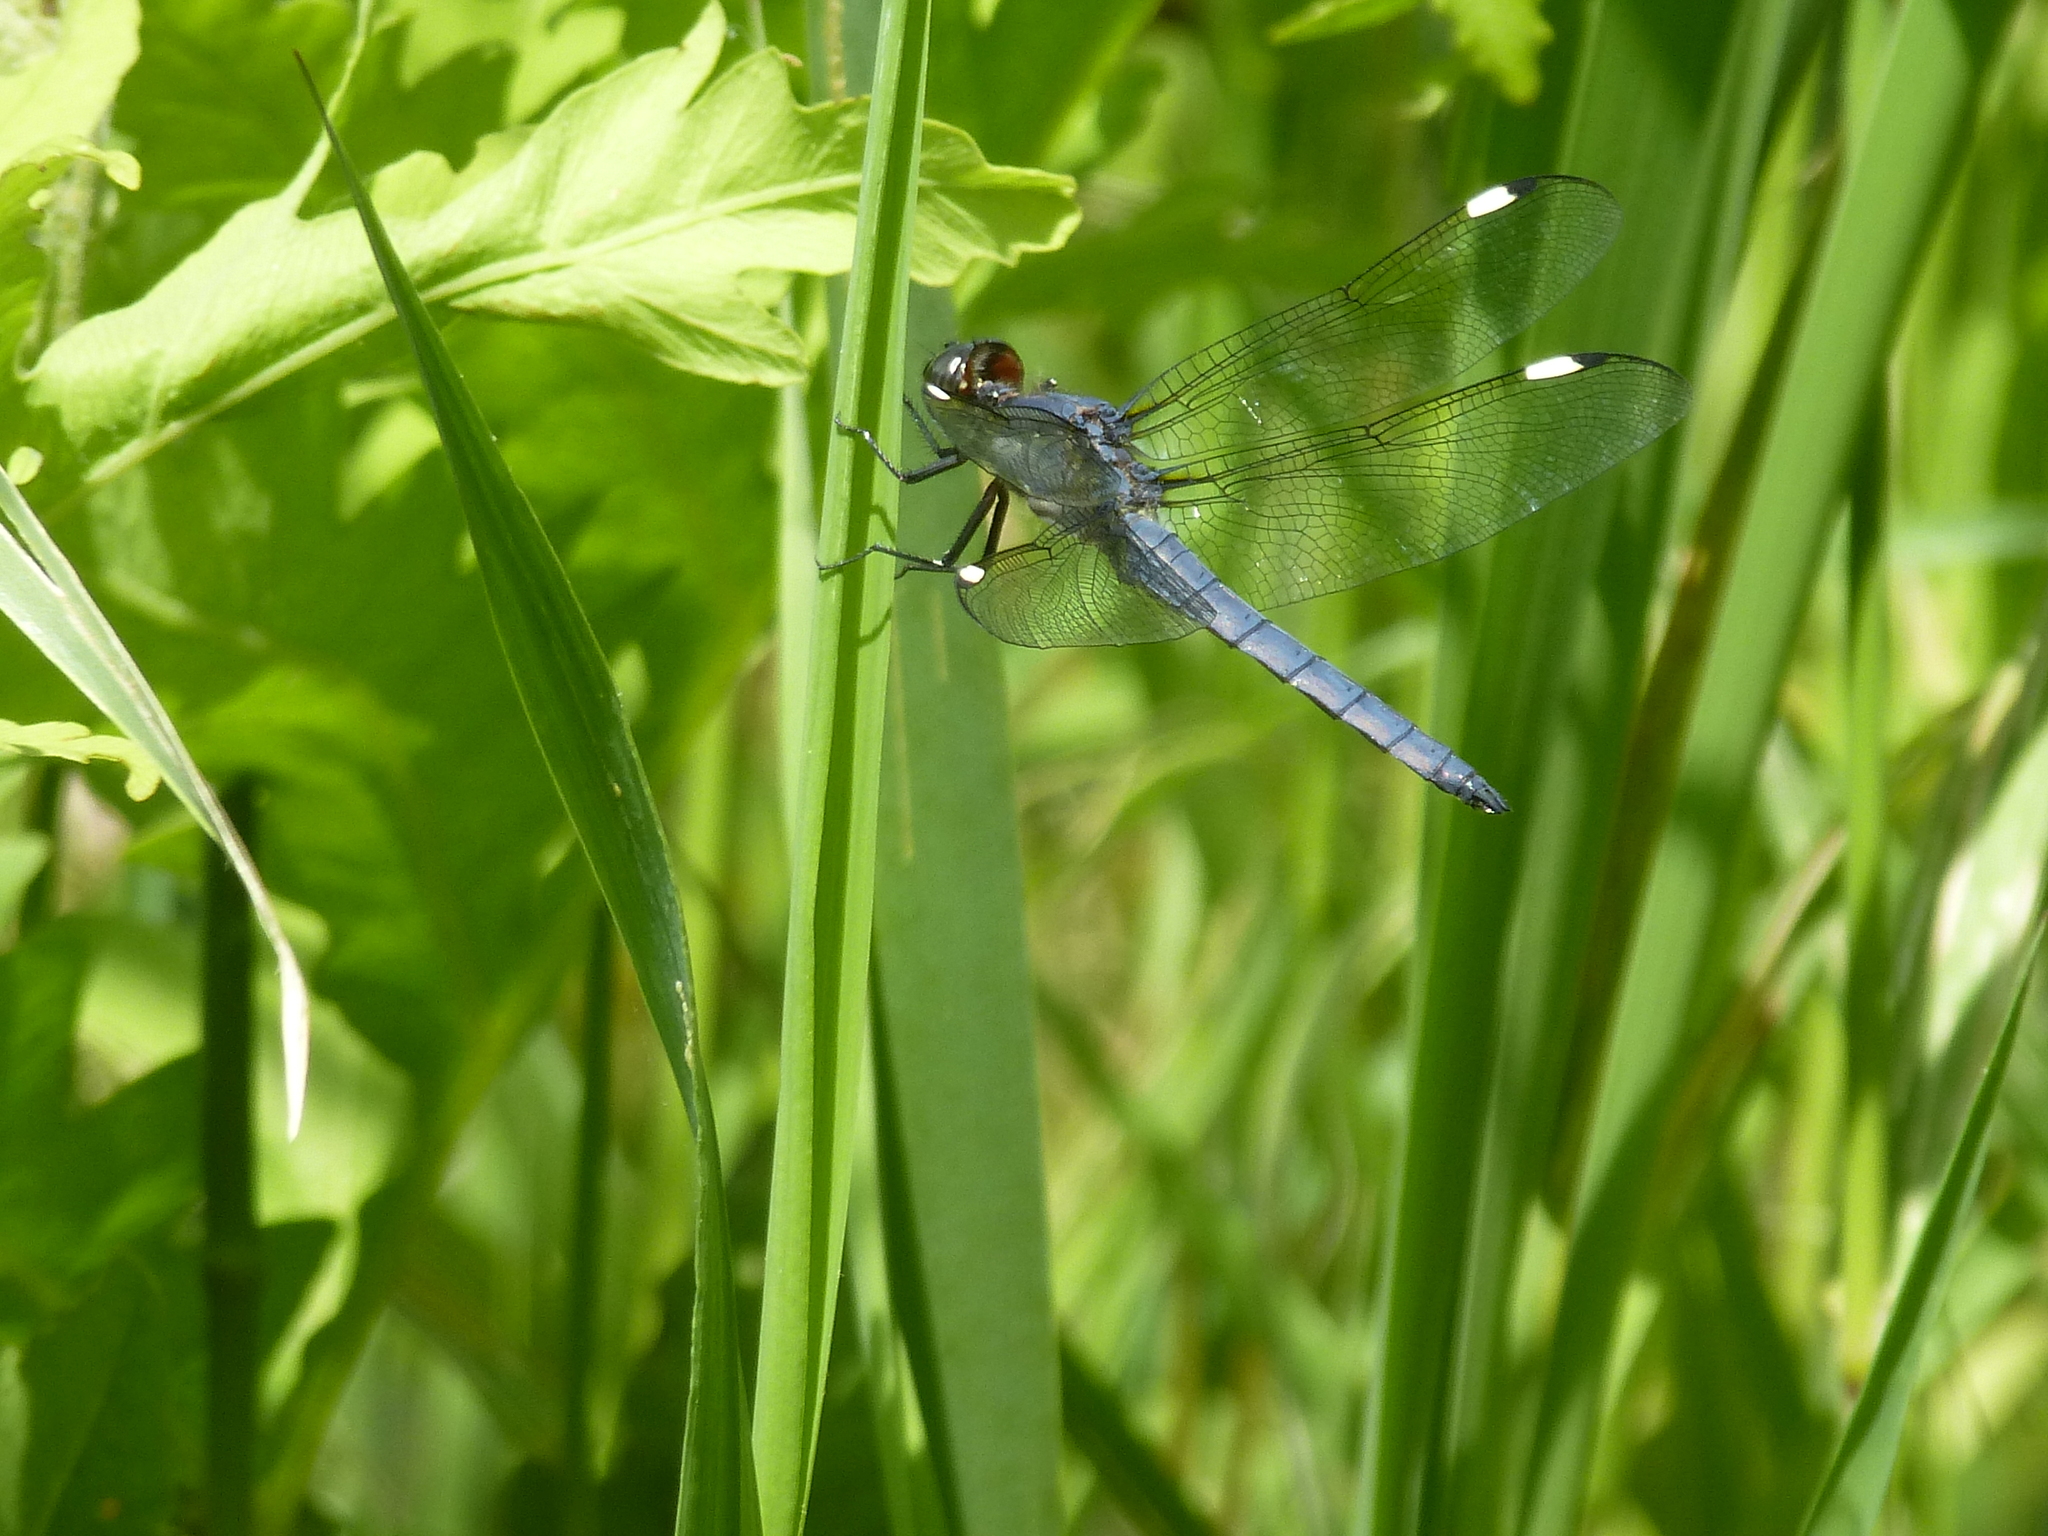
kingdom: Animalia
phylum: Arthropoda
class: Insecta
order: Odonata
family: Libellulidae
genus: Libellula
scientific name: Libellula cyanea
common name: Spangled skimmer
